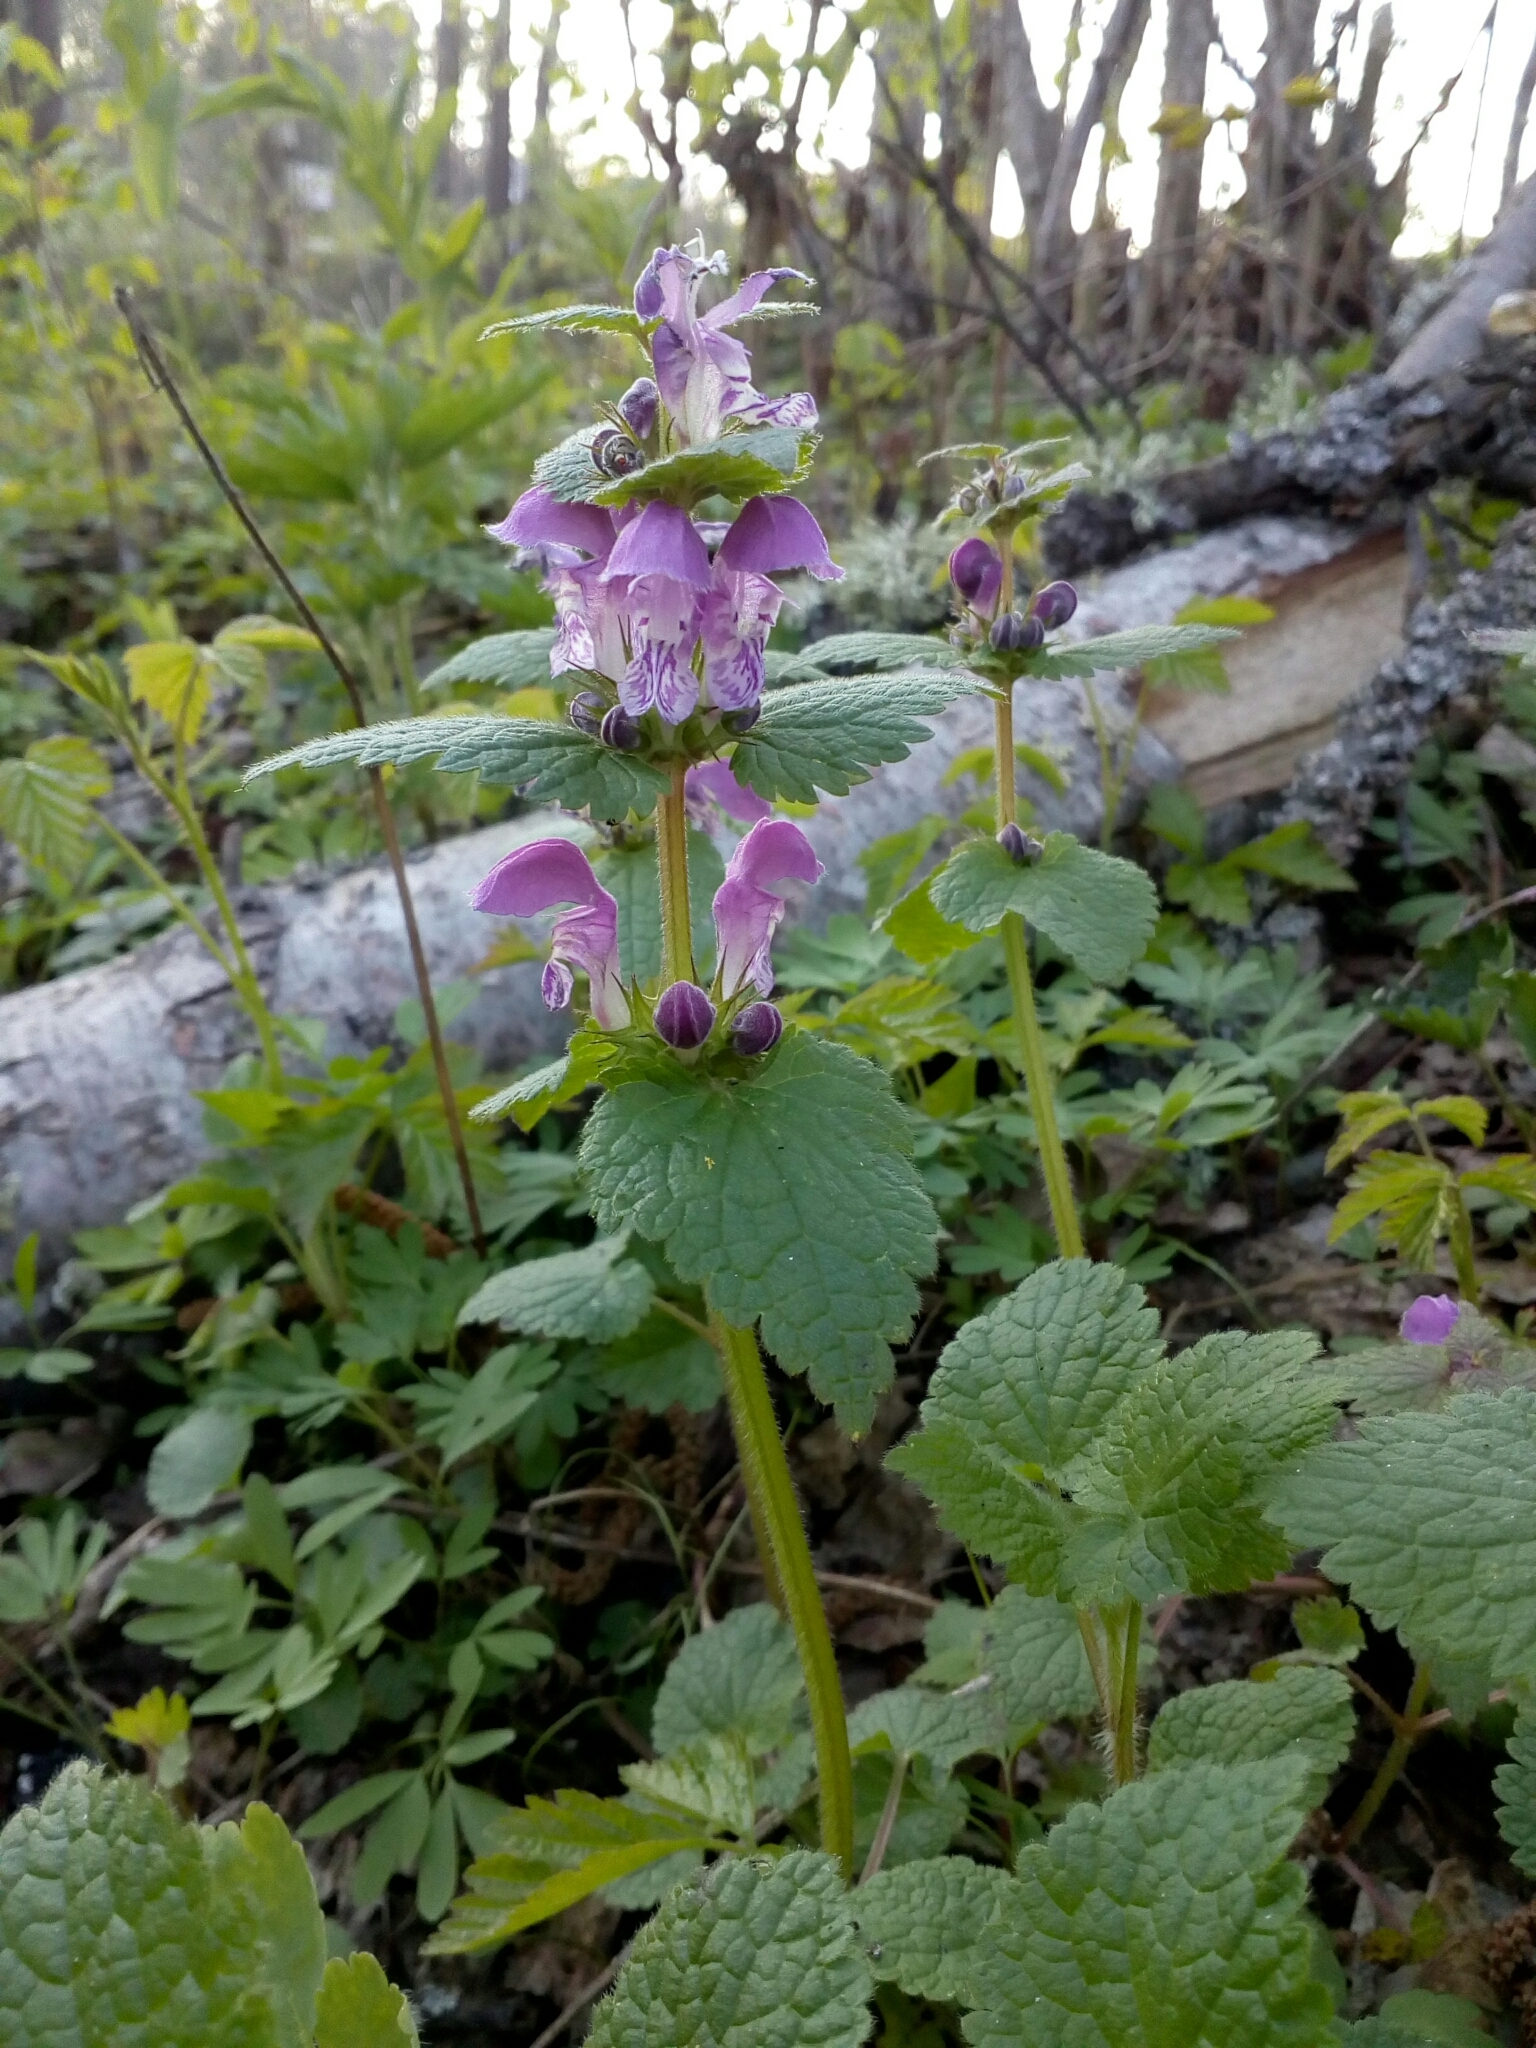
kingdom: Plantae
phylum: Tracheophyta
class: Magnoliopsida
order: Lamiales
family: Lamiaceae
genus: Lamium
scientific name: Lamium maculatum
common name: Spotted dead-nettle
